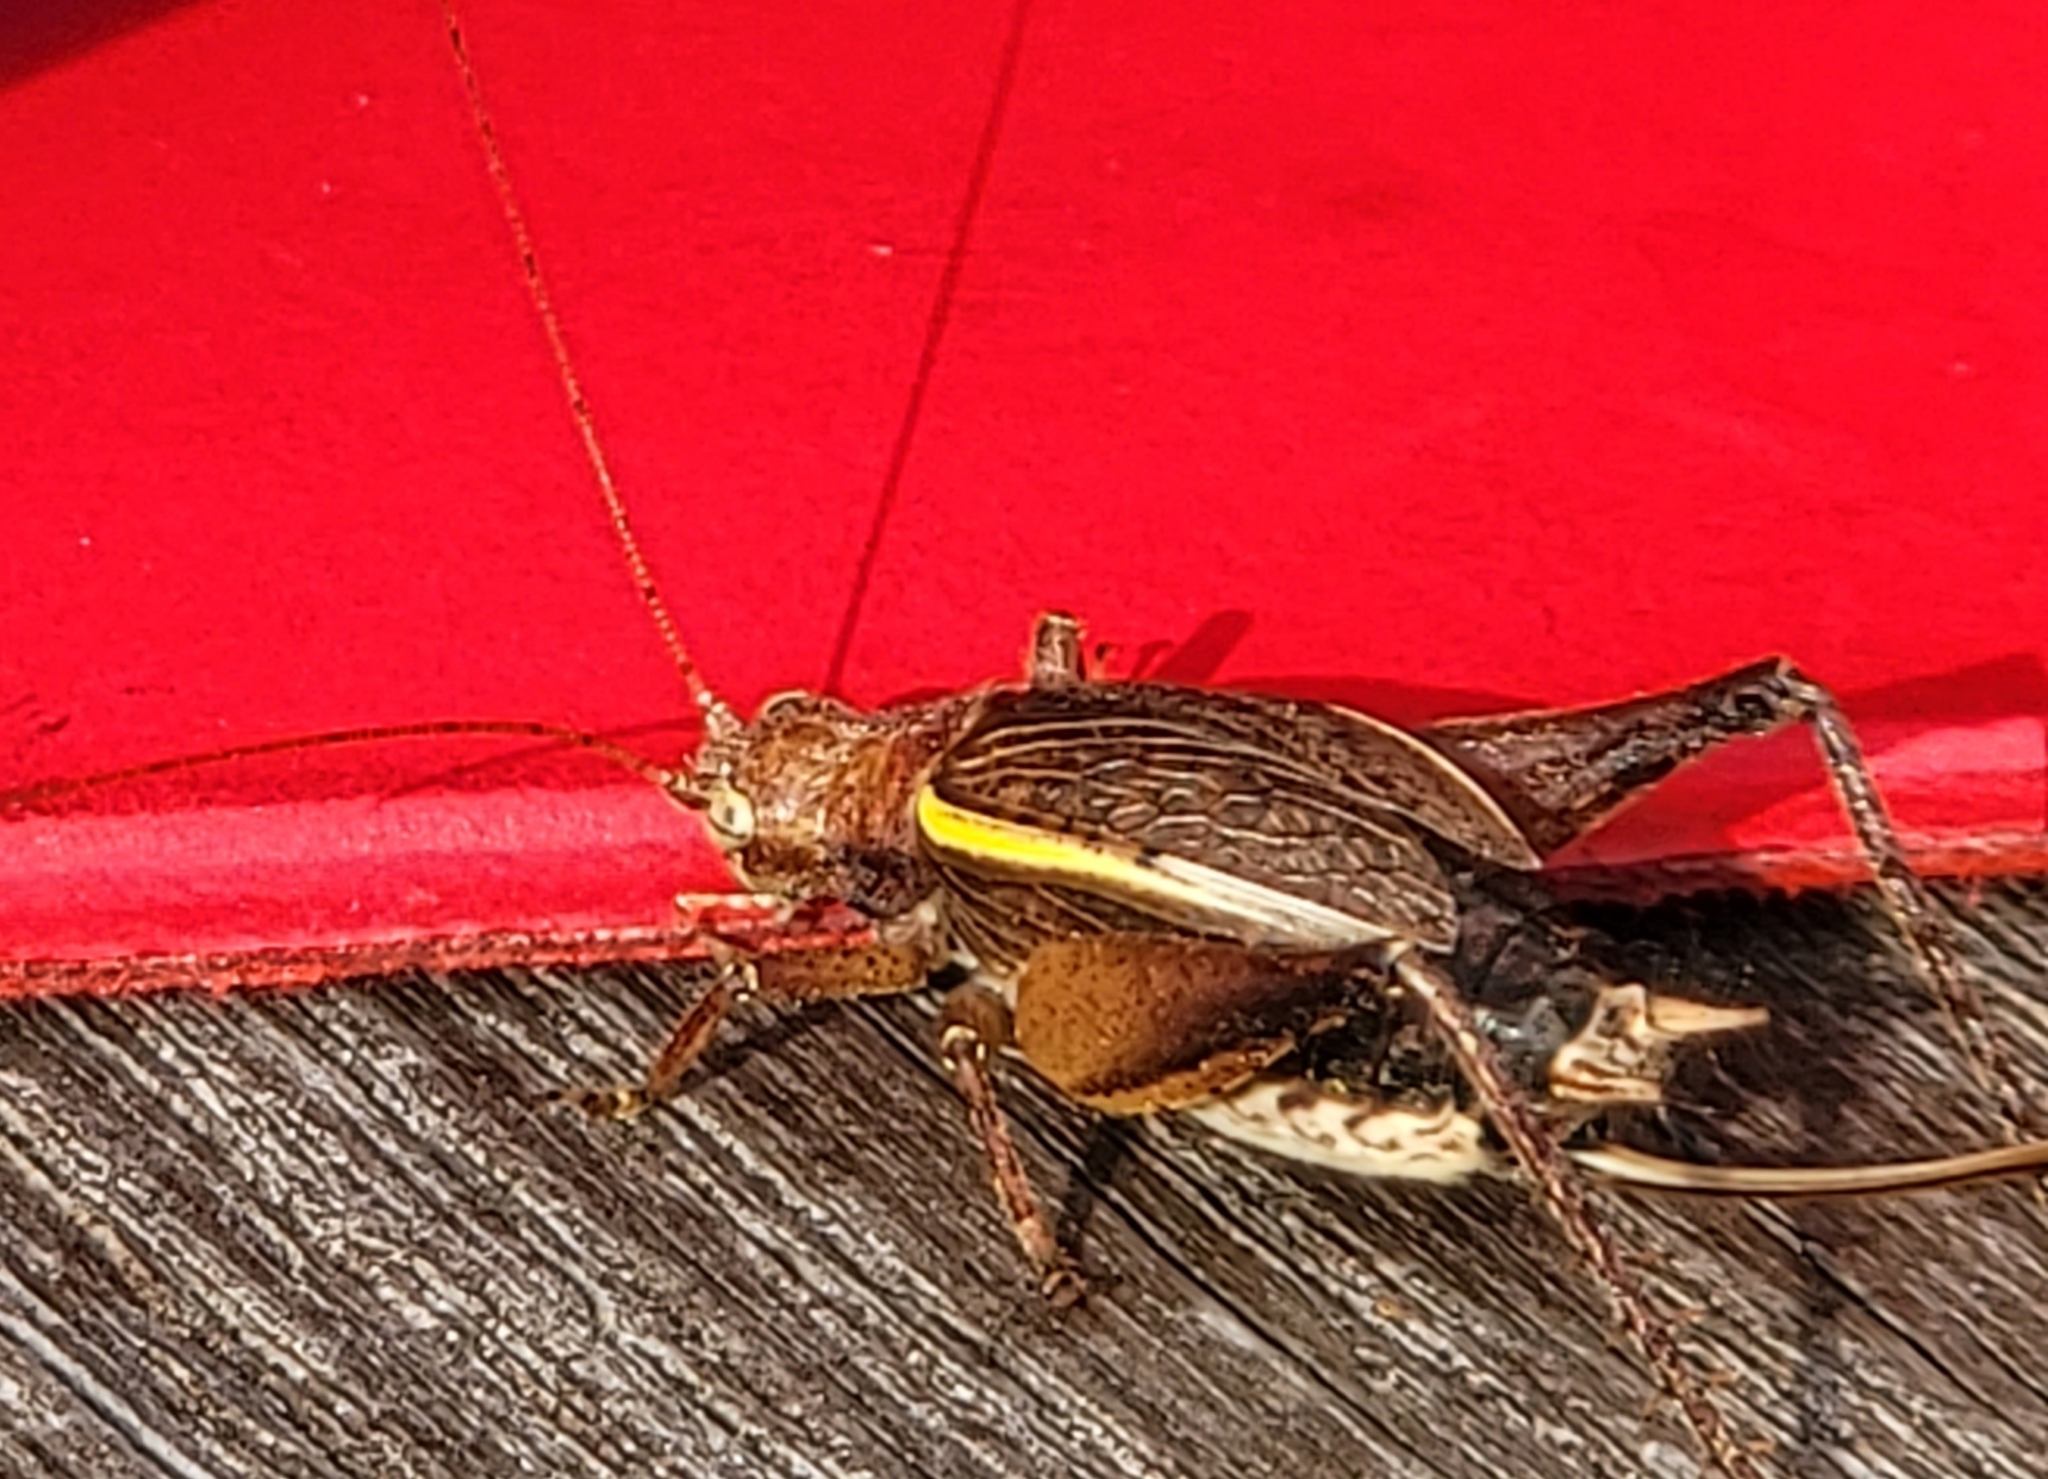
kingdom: Animalia
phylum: Arthropoda
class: Insecta
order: Orthoptera
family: Gryllidae
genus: Hapithus
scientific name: Hapithus agitator
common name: Restless bush cricket
